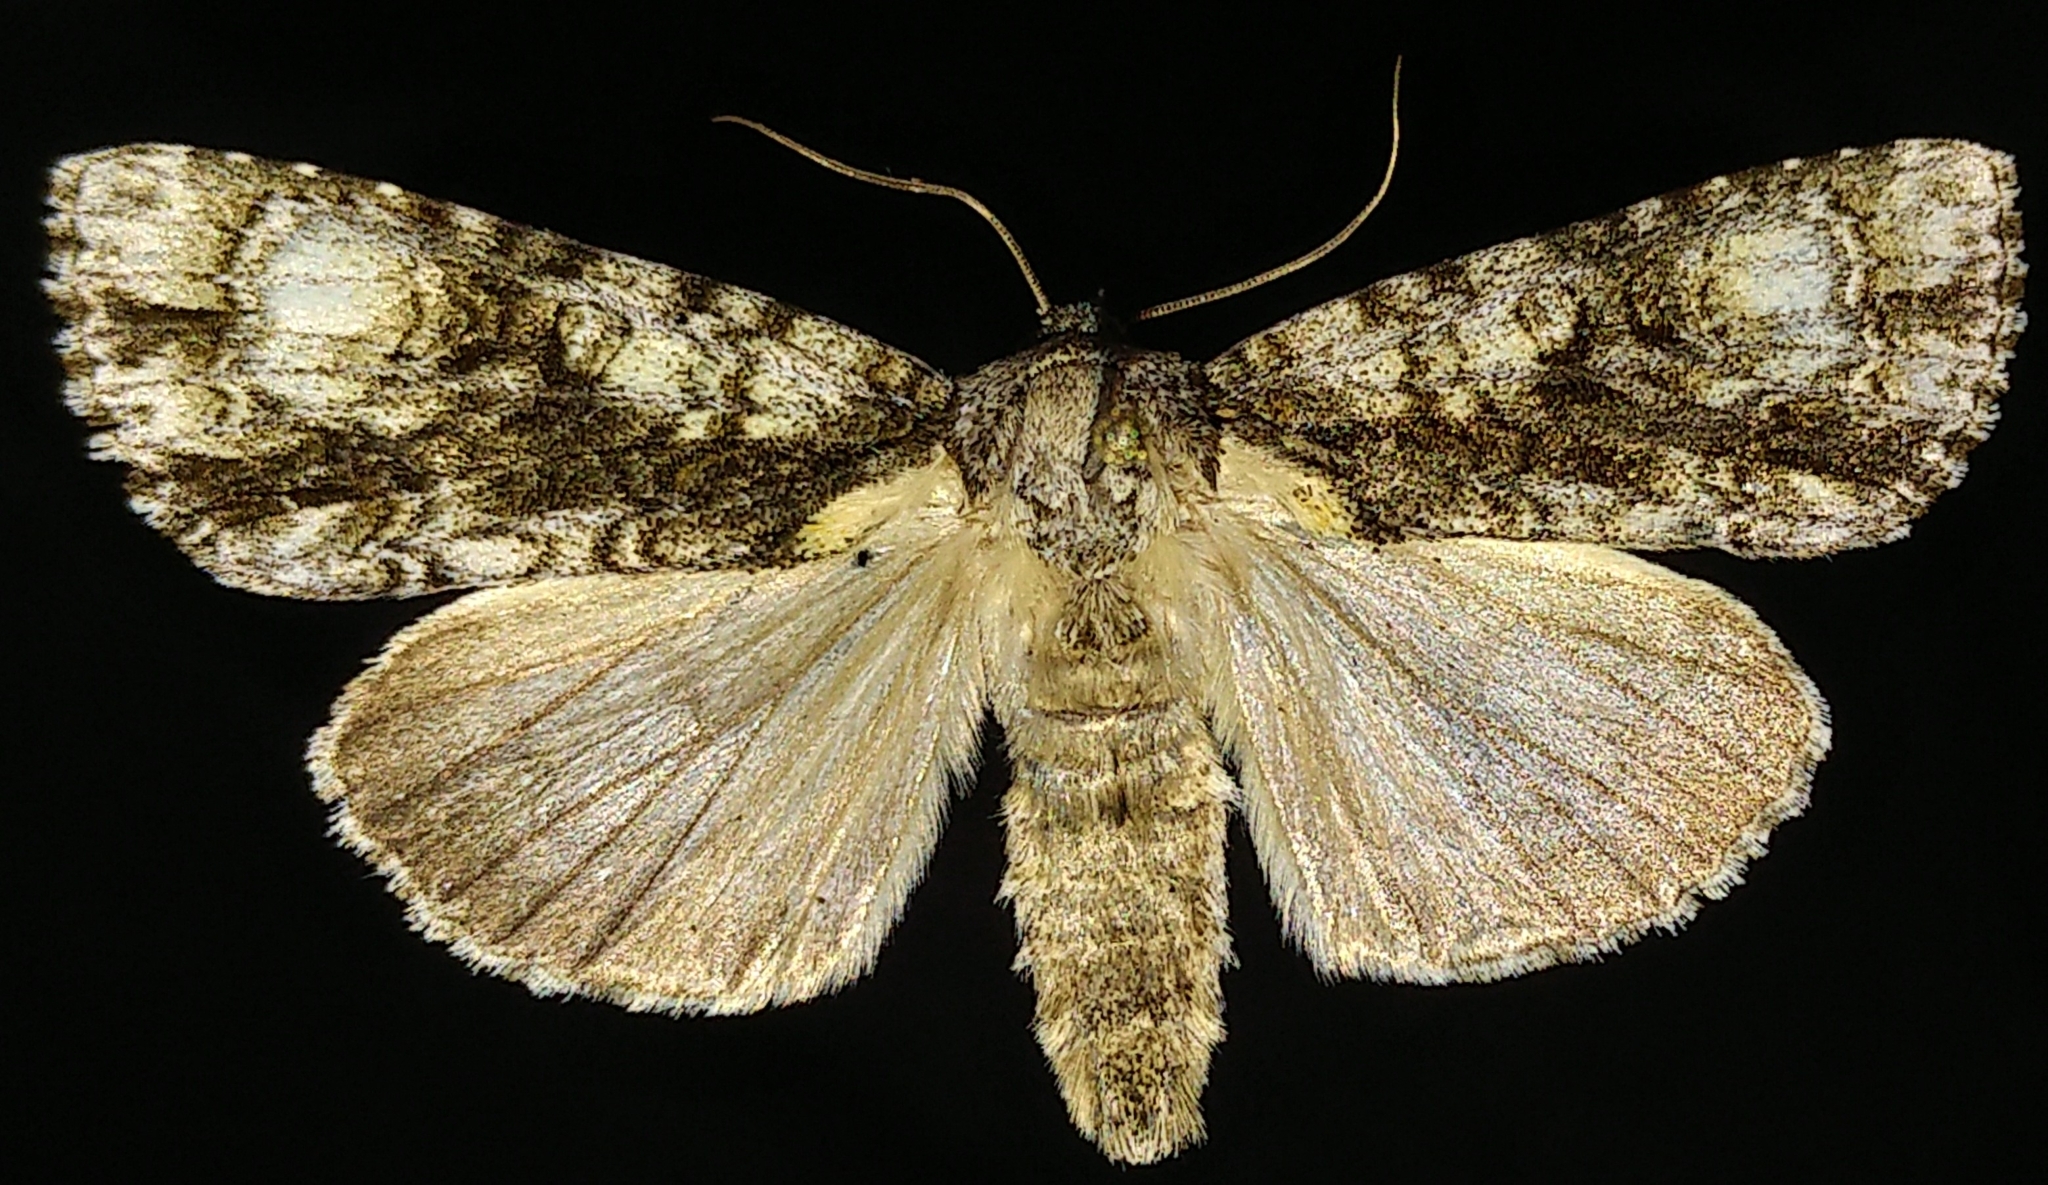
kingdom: Animalia
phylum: Arthropoda
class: Insecta
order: Lepidoptera
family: Noctuidae
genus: Acronicta
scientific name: Acronicta superans
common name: Splendid dagger
